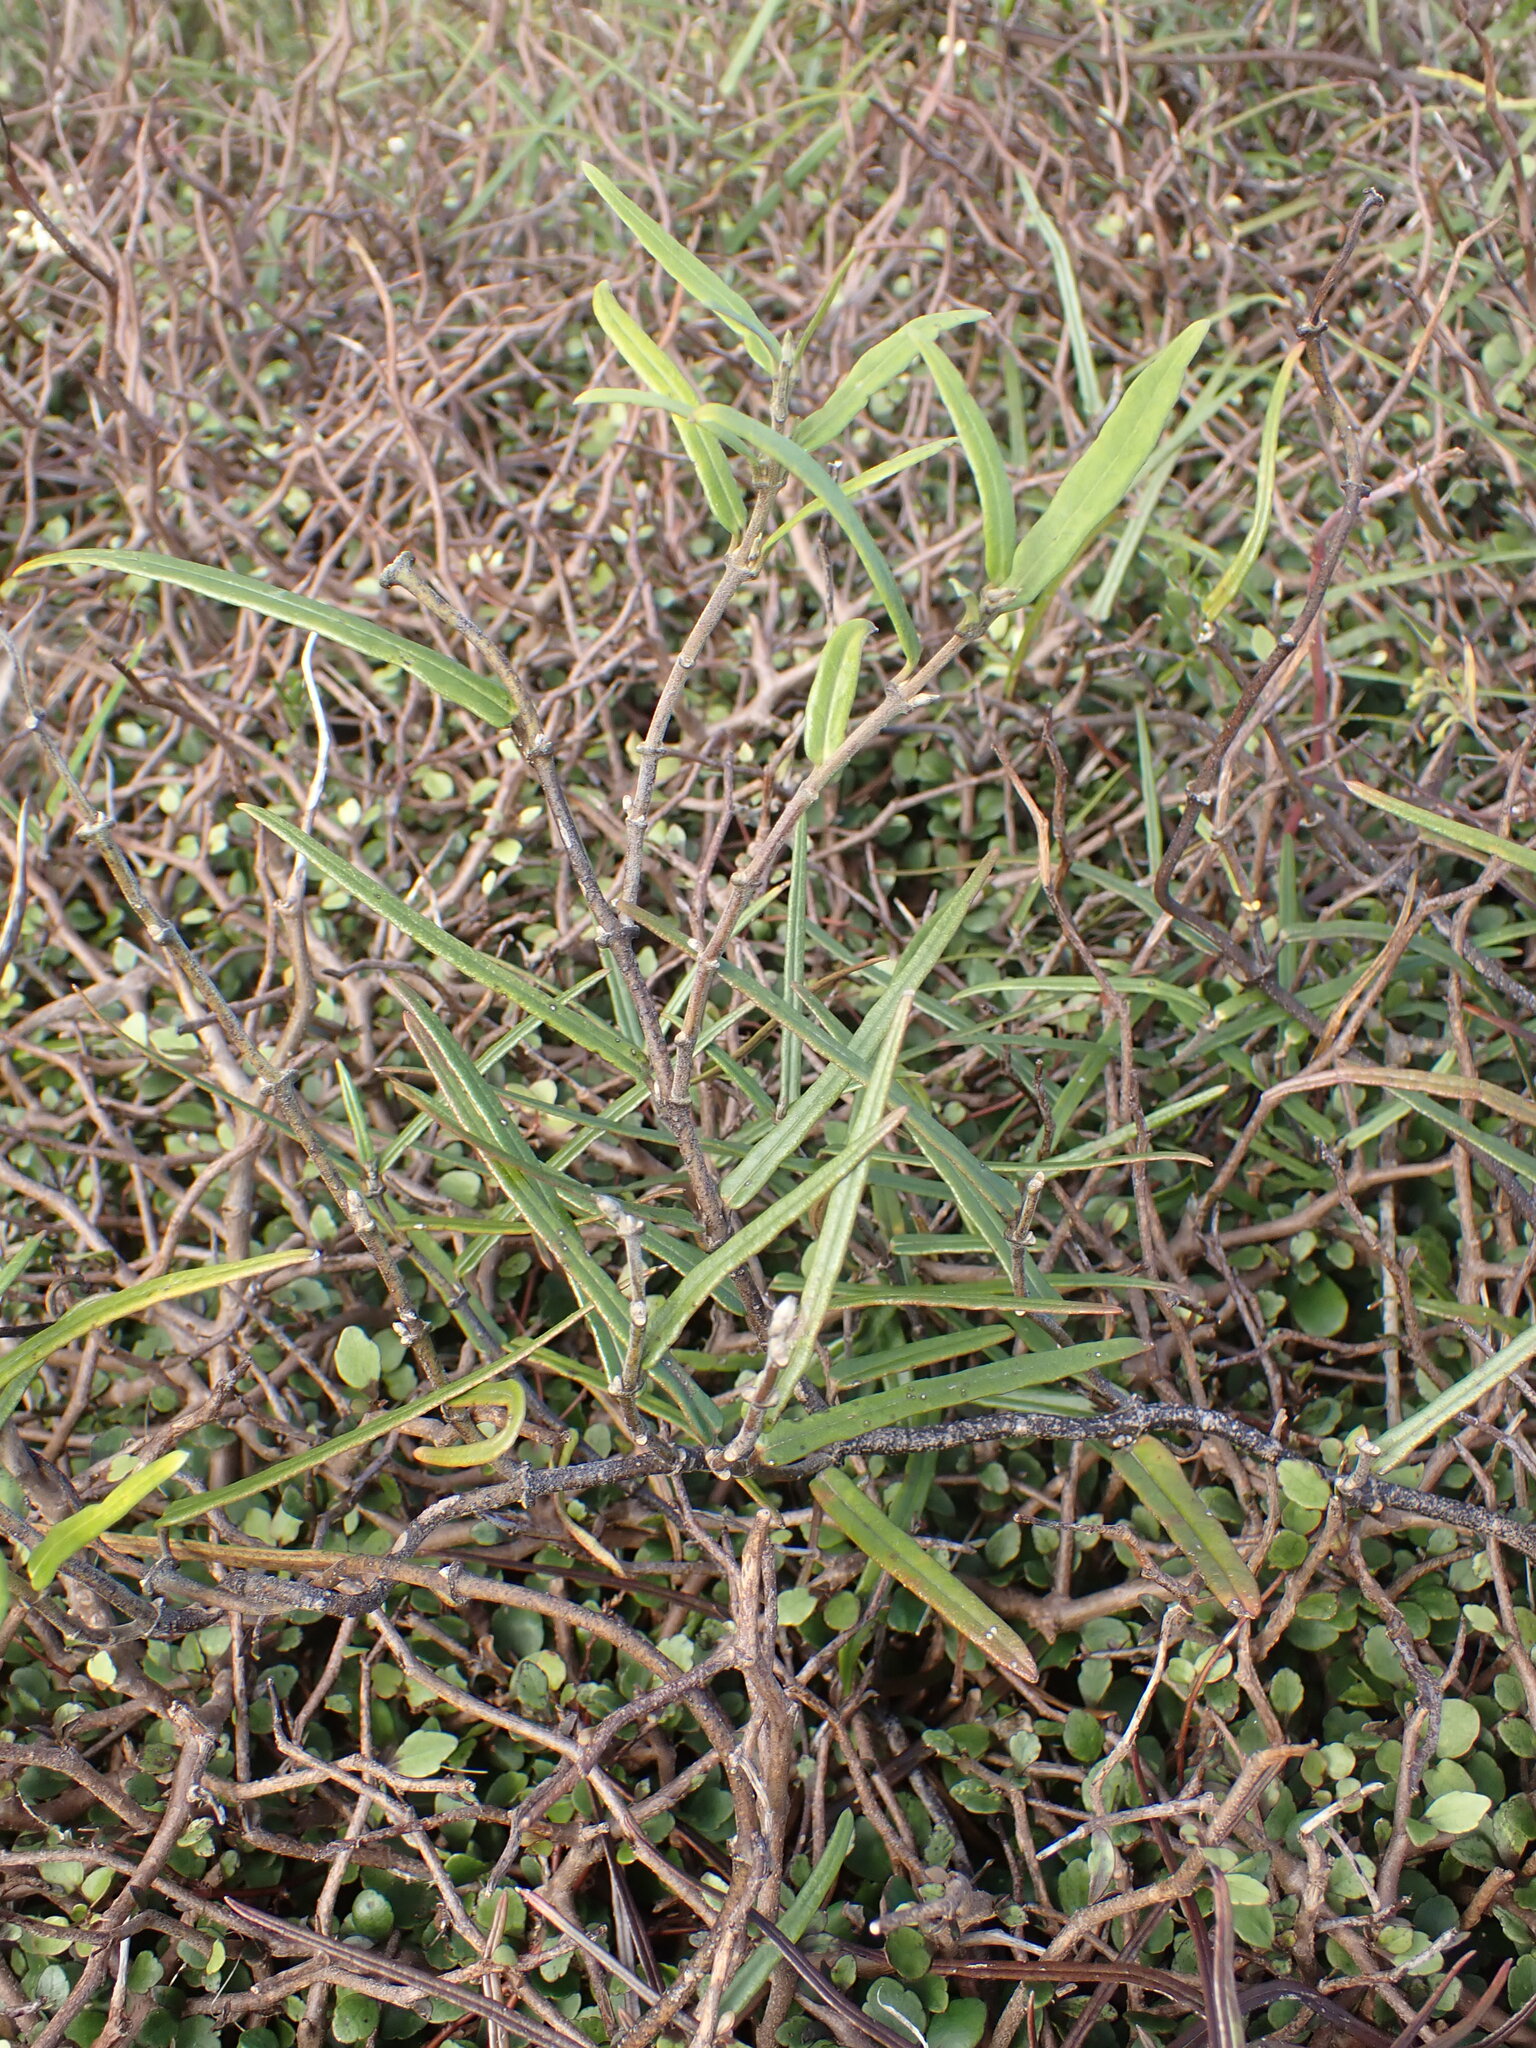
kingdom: Plantae
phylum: Tracheophyta
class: Magnoliopsida
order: Gentianales
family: Apocynaceae
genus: Parsonsia
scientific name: Parsonsia capsularis
